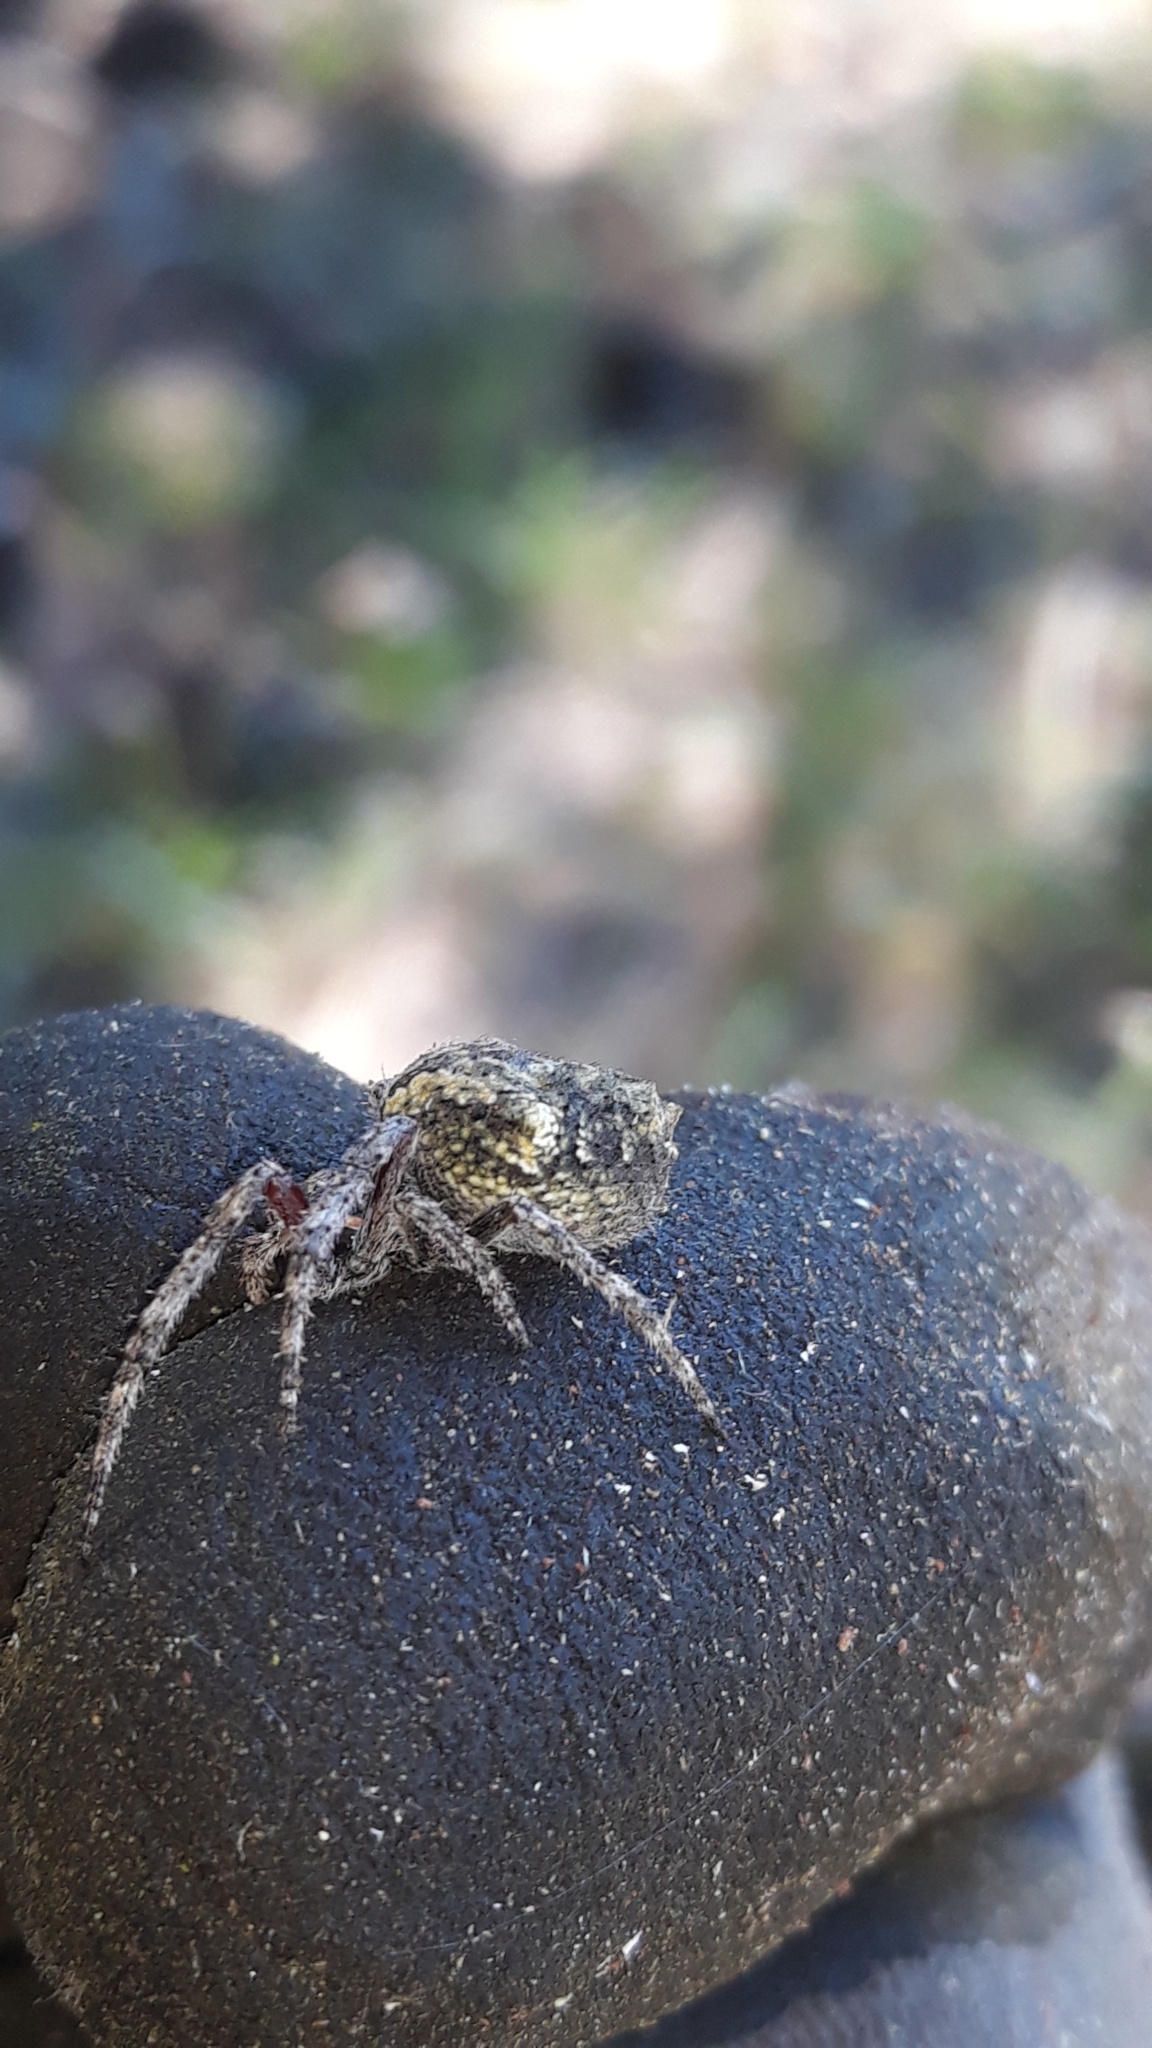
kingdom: Animalia
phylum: Arthropoda
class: Arachnida
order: Araneae
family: Araneidae
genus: Eriophora
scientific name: Eriophora pustulosa
